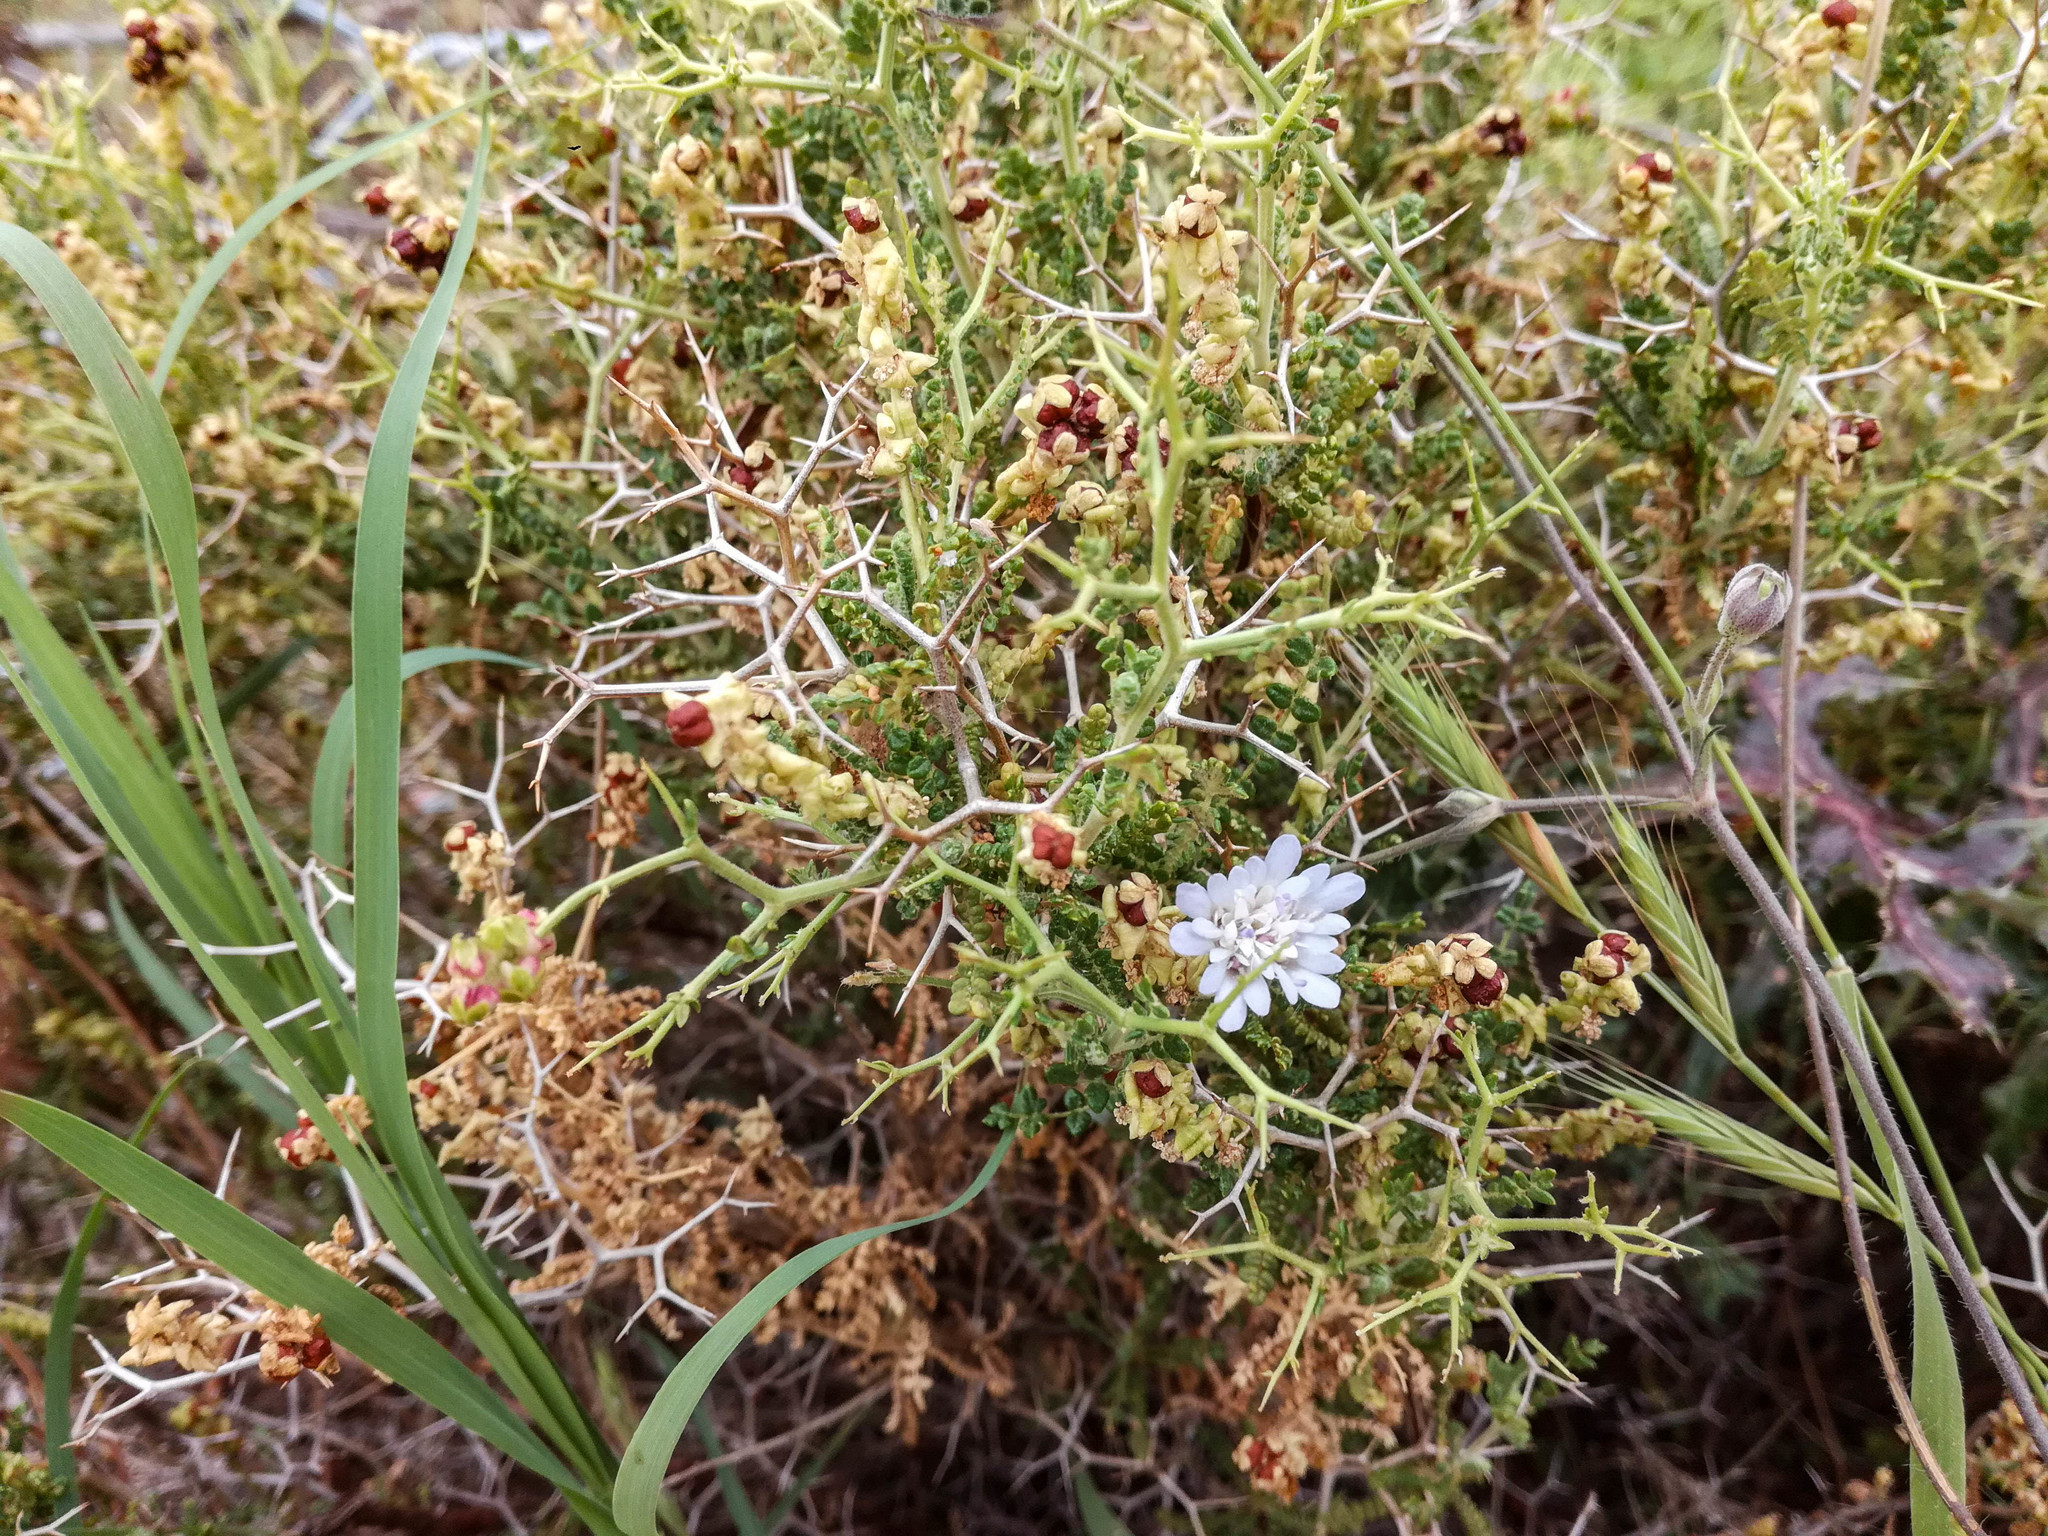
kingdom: Plantae
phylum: Tracheophyta
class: Magnoliopsida
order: Rosales
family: Rosaceae
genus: Sarcopoterium
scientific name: Sarcopoterium spinosum
